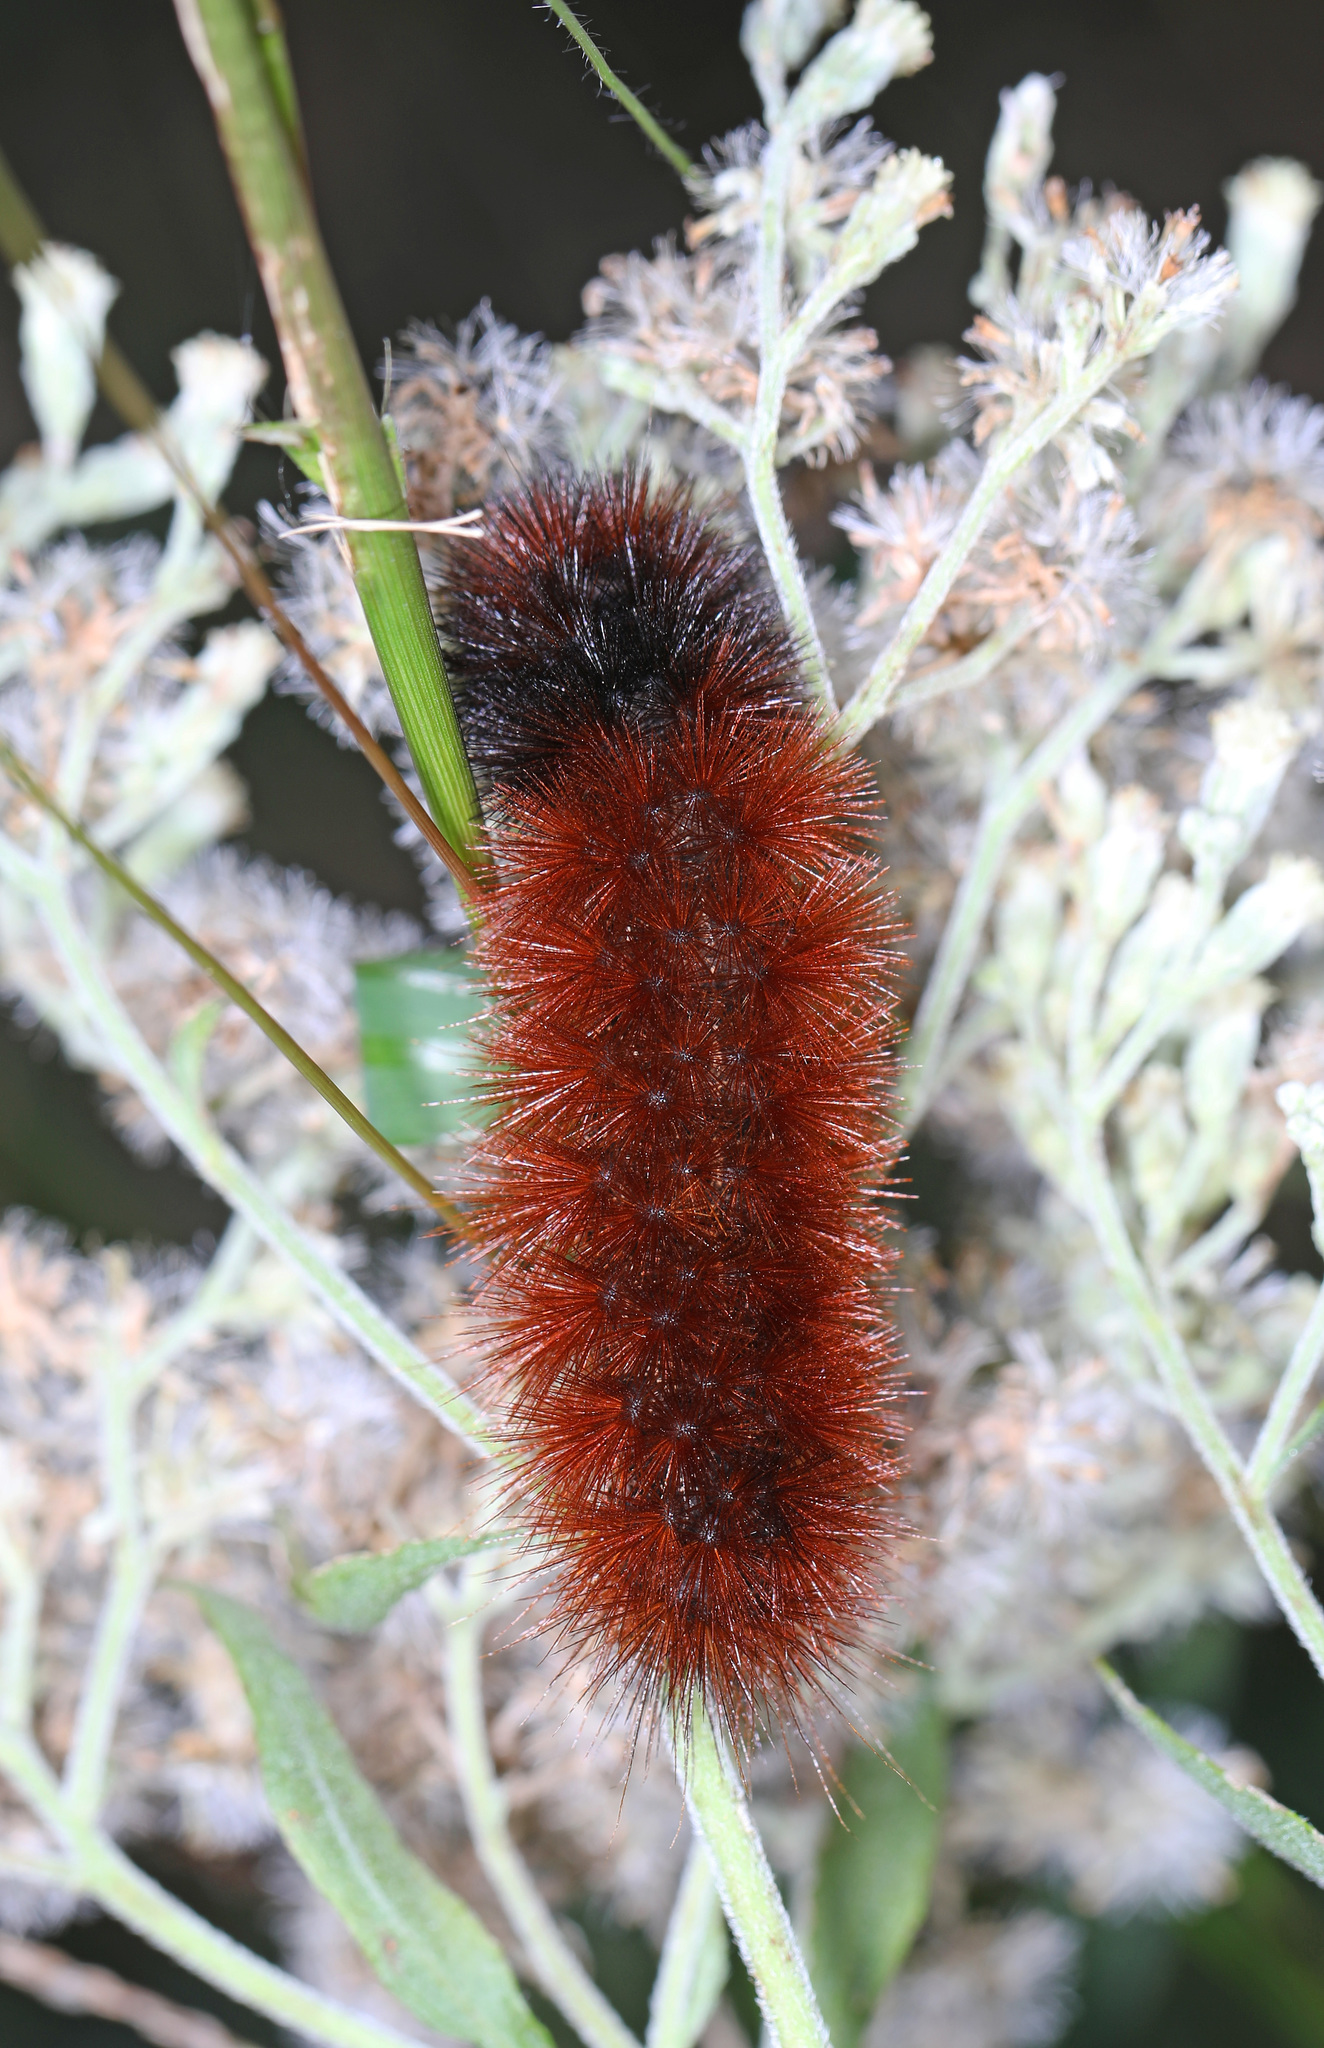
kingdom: Animalia
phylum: Arthropoda
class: Insecta
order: Lepidoptera
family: Erebidae
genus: Pyrrharctia
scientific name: Pyrrharctia isabella
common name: Isabella tiger moth
